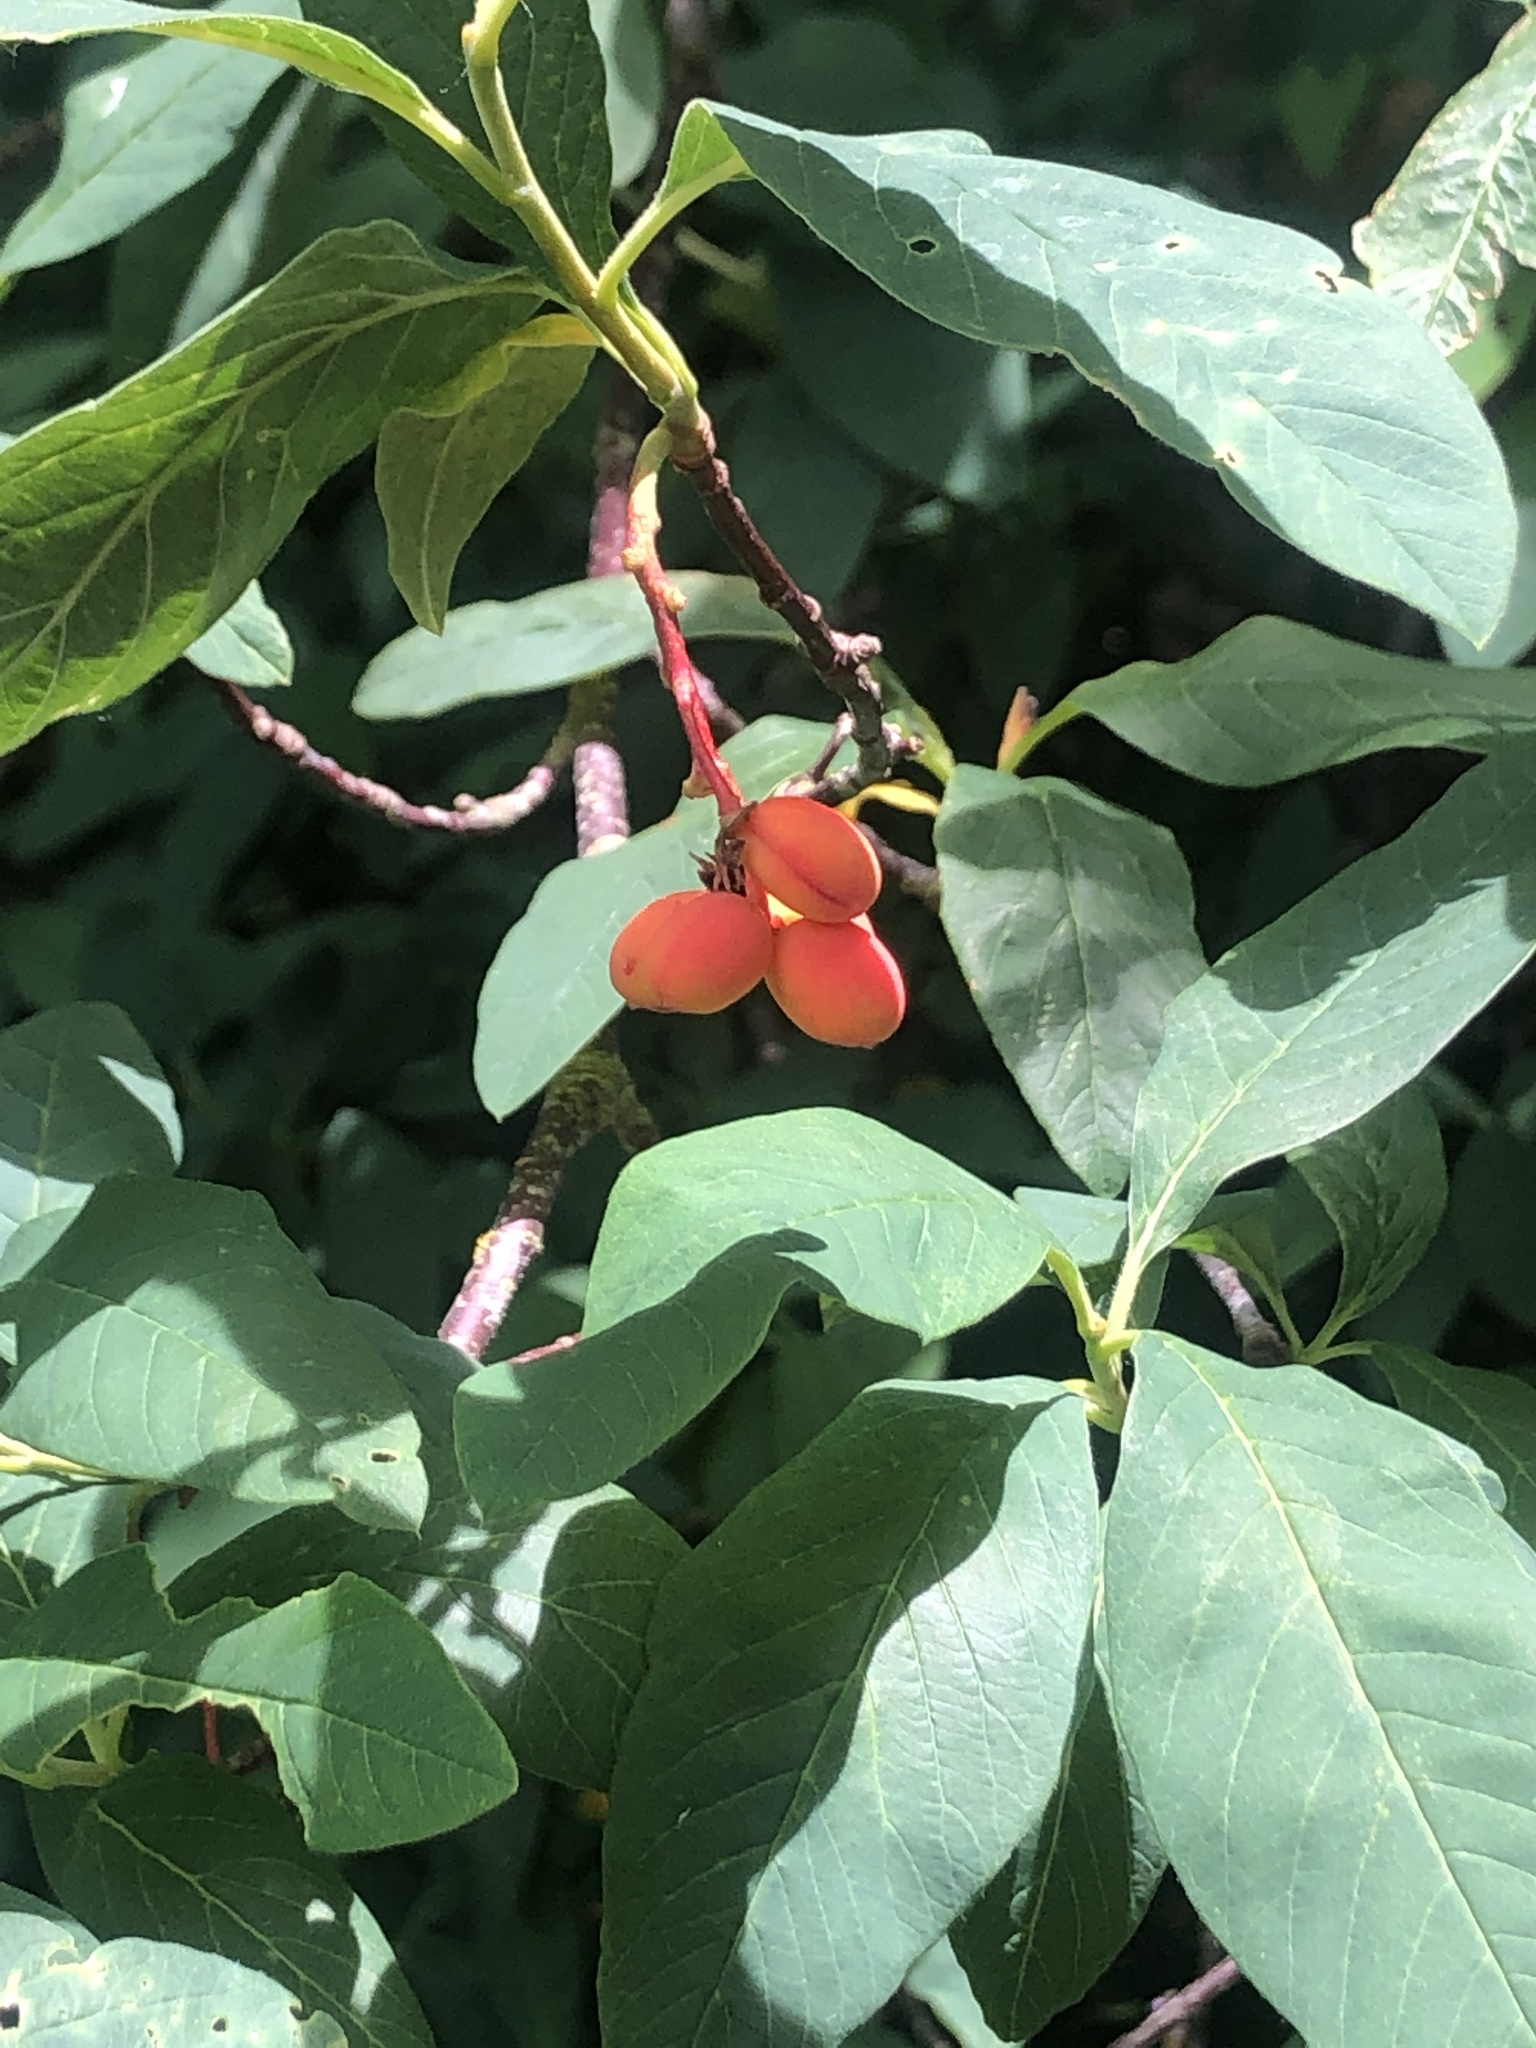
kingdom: Plantae
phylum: Tracheophyta
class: Magnoliopsida
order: Rosales
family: Rosaceae
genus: Oemleria
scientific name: Oemleria cerasiformis
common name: Osoberry
